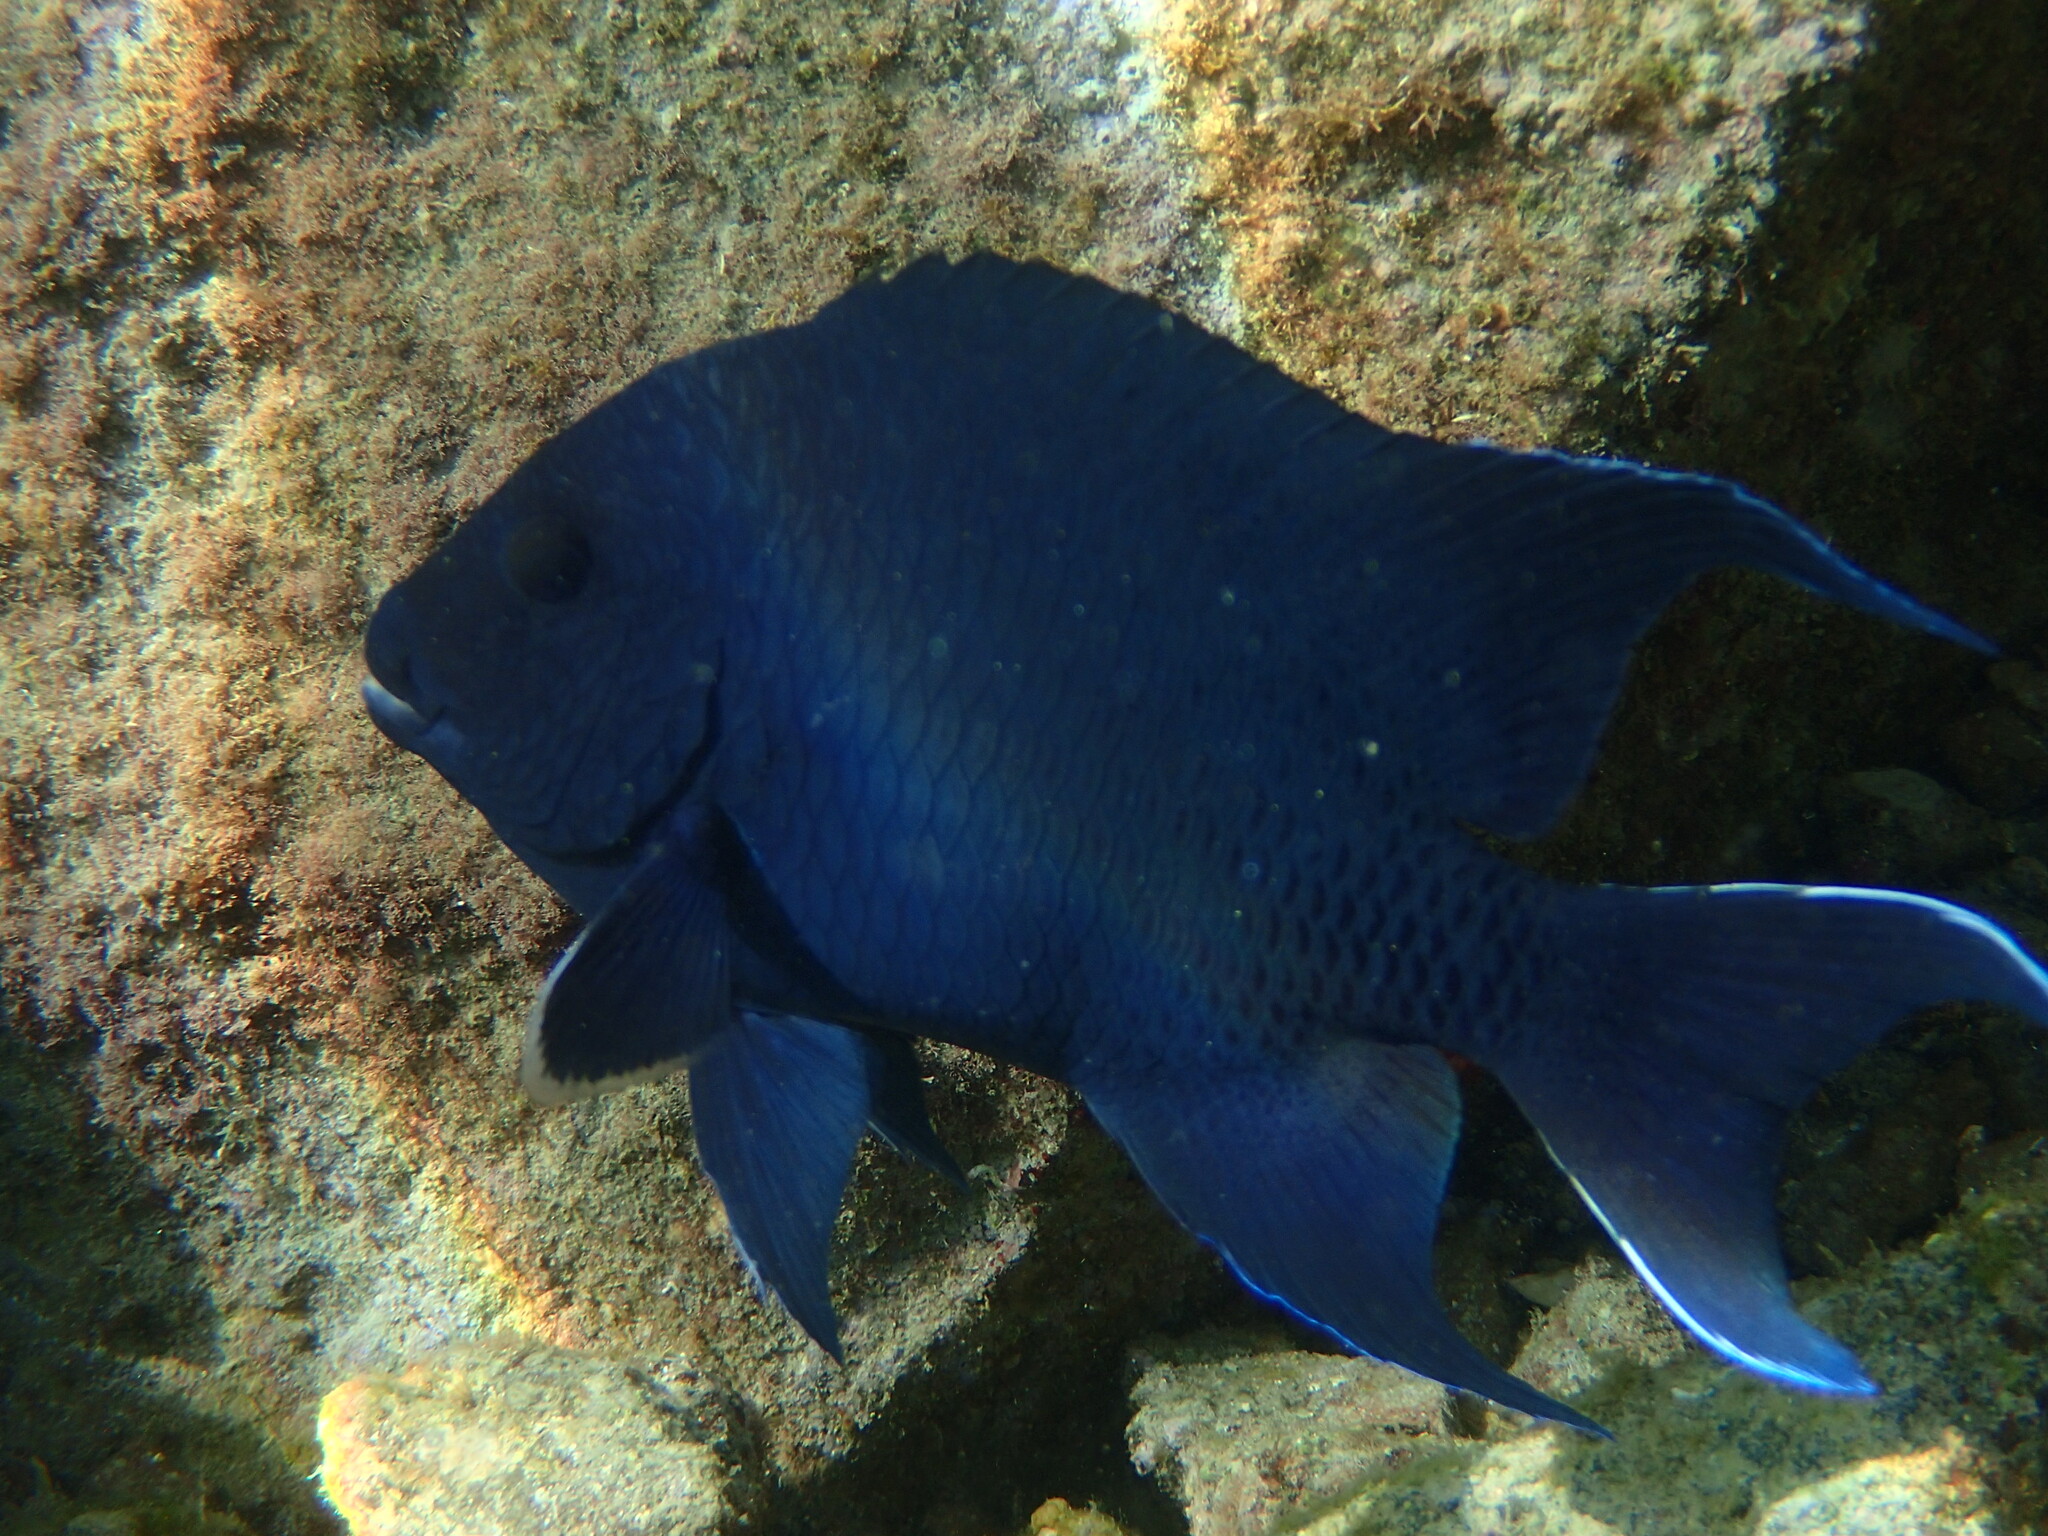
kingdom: Animalia
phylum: Chordata
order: Perciformes
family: Pomacentridae
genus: Microspathodon
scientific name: Microspathodon dorsalis
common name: Giant damselfish
